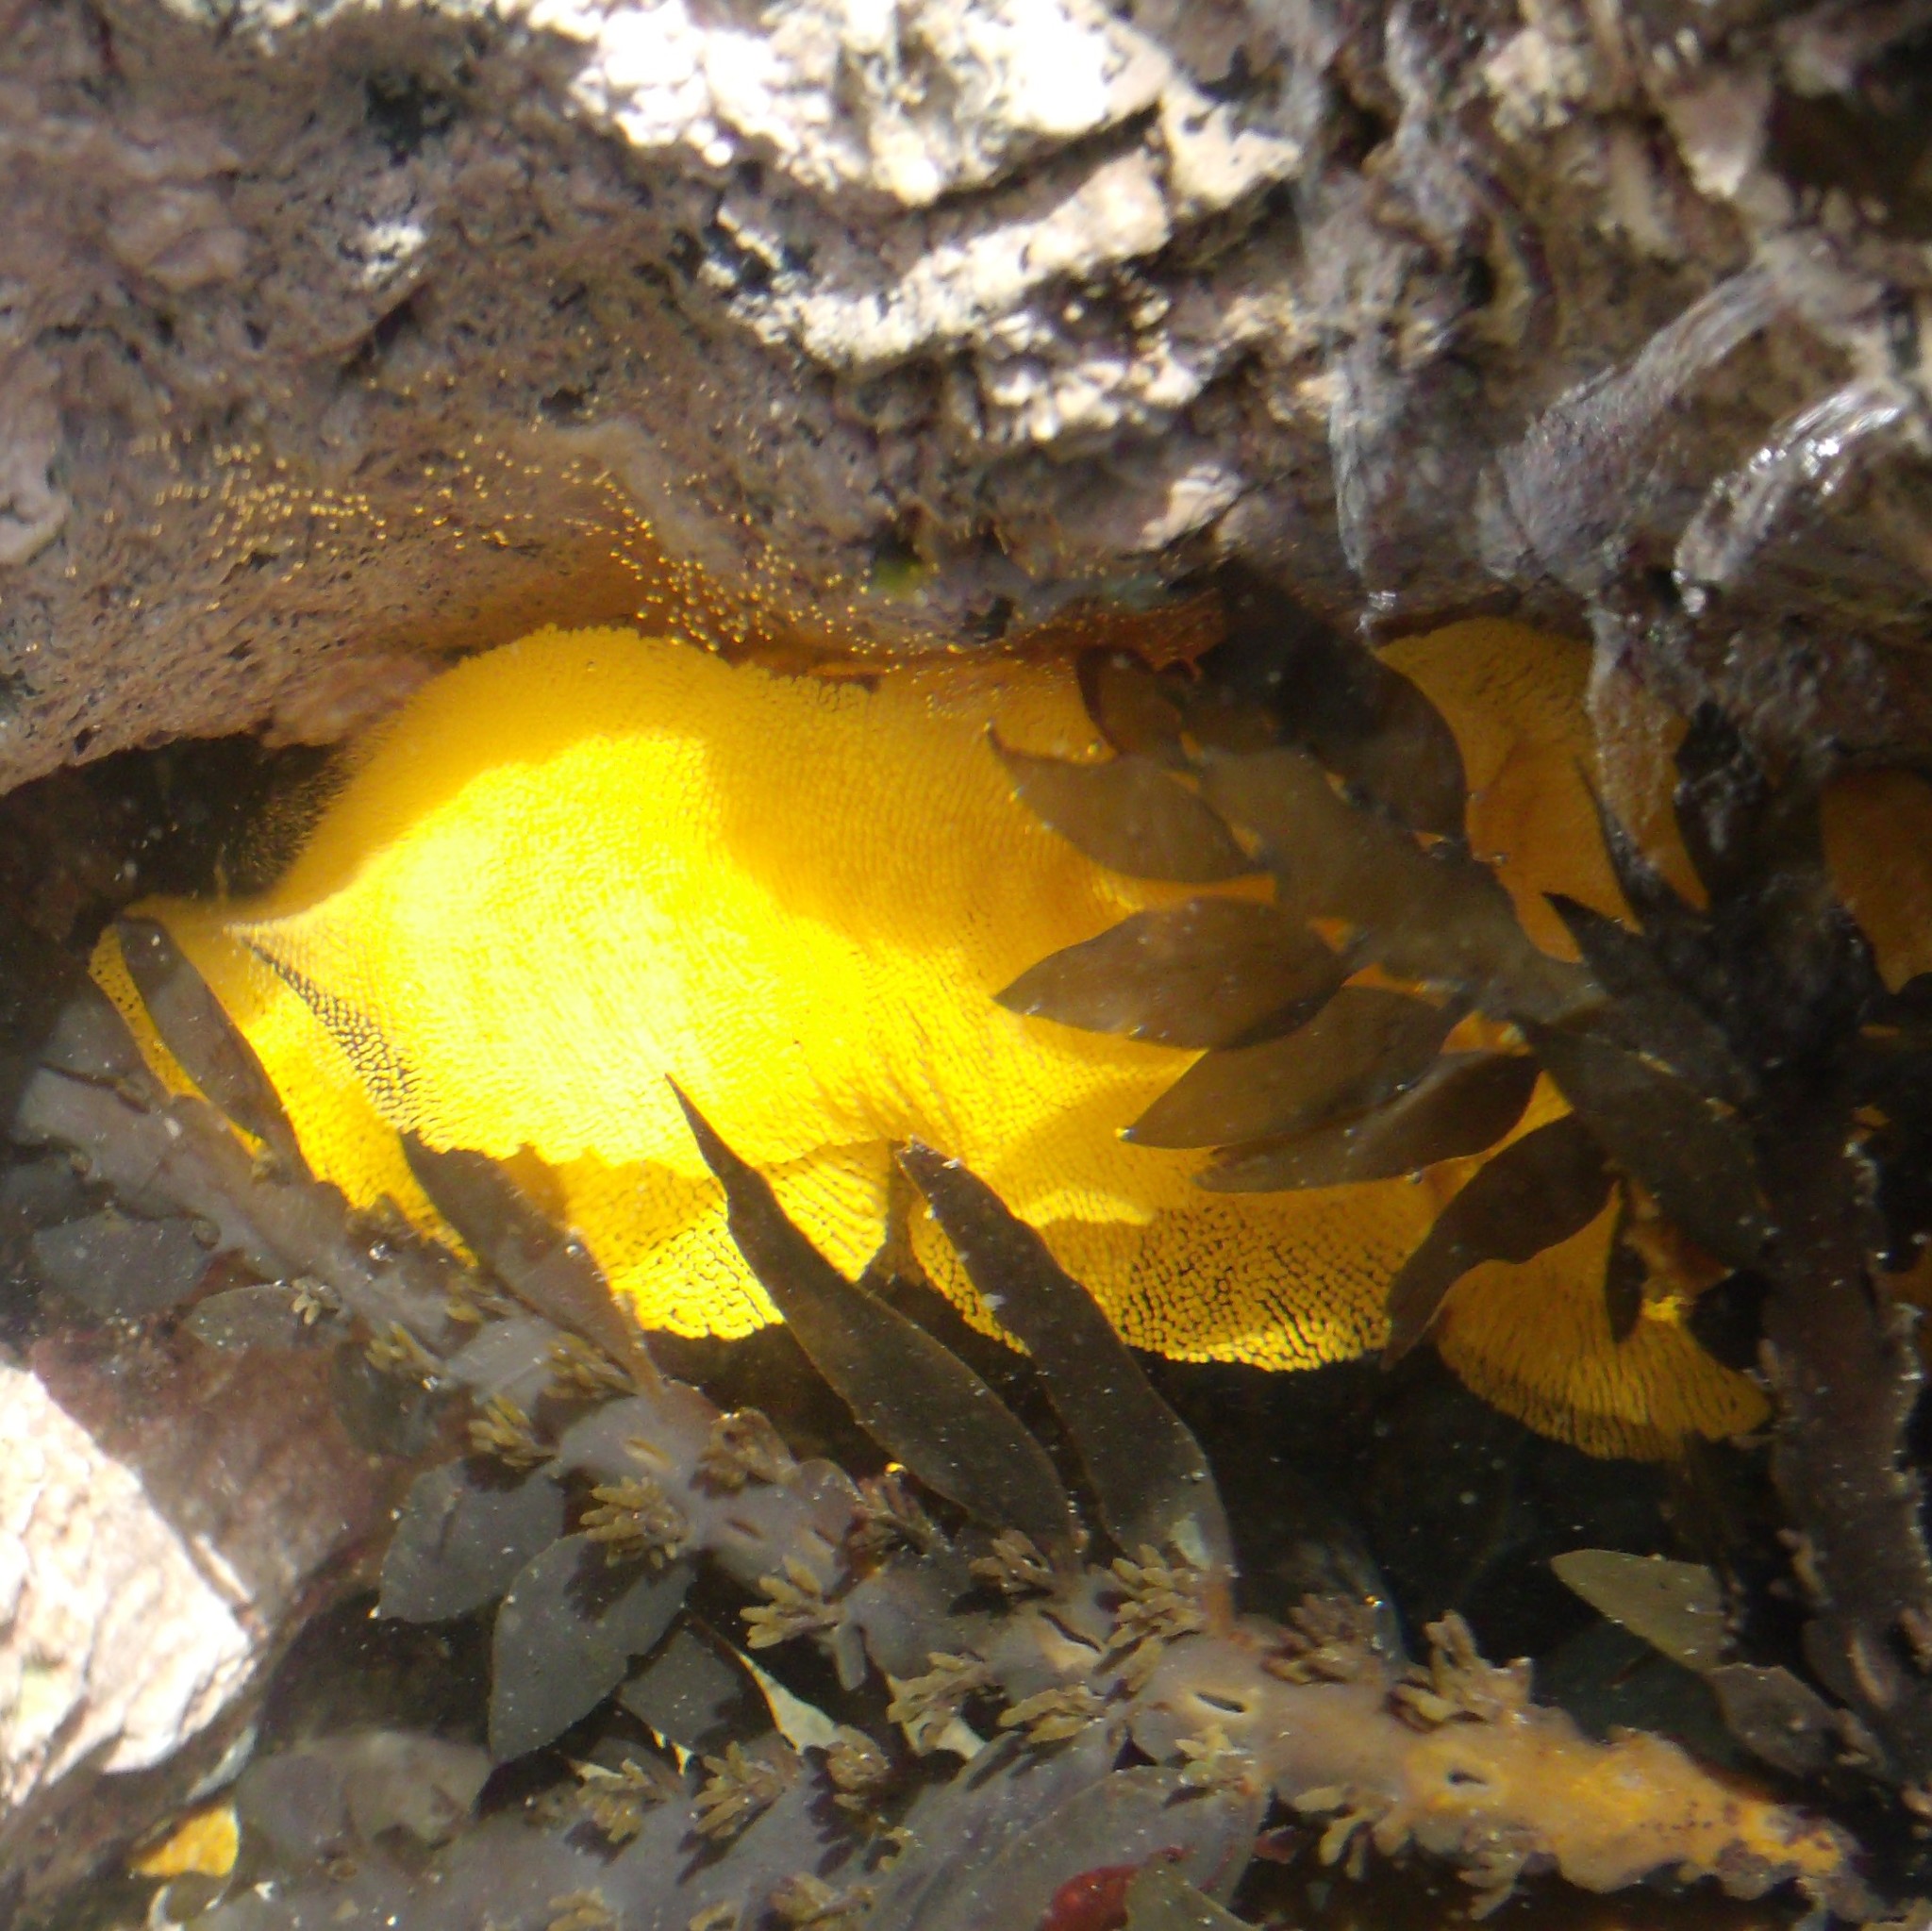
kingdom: Animalia
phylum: Mollusca
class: Gastropoda
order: Nudibranchia
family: Dorididae
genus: Doris
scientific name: Doris wellingtonensis
